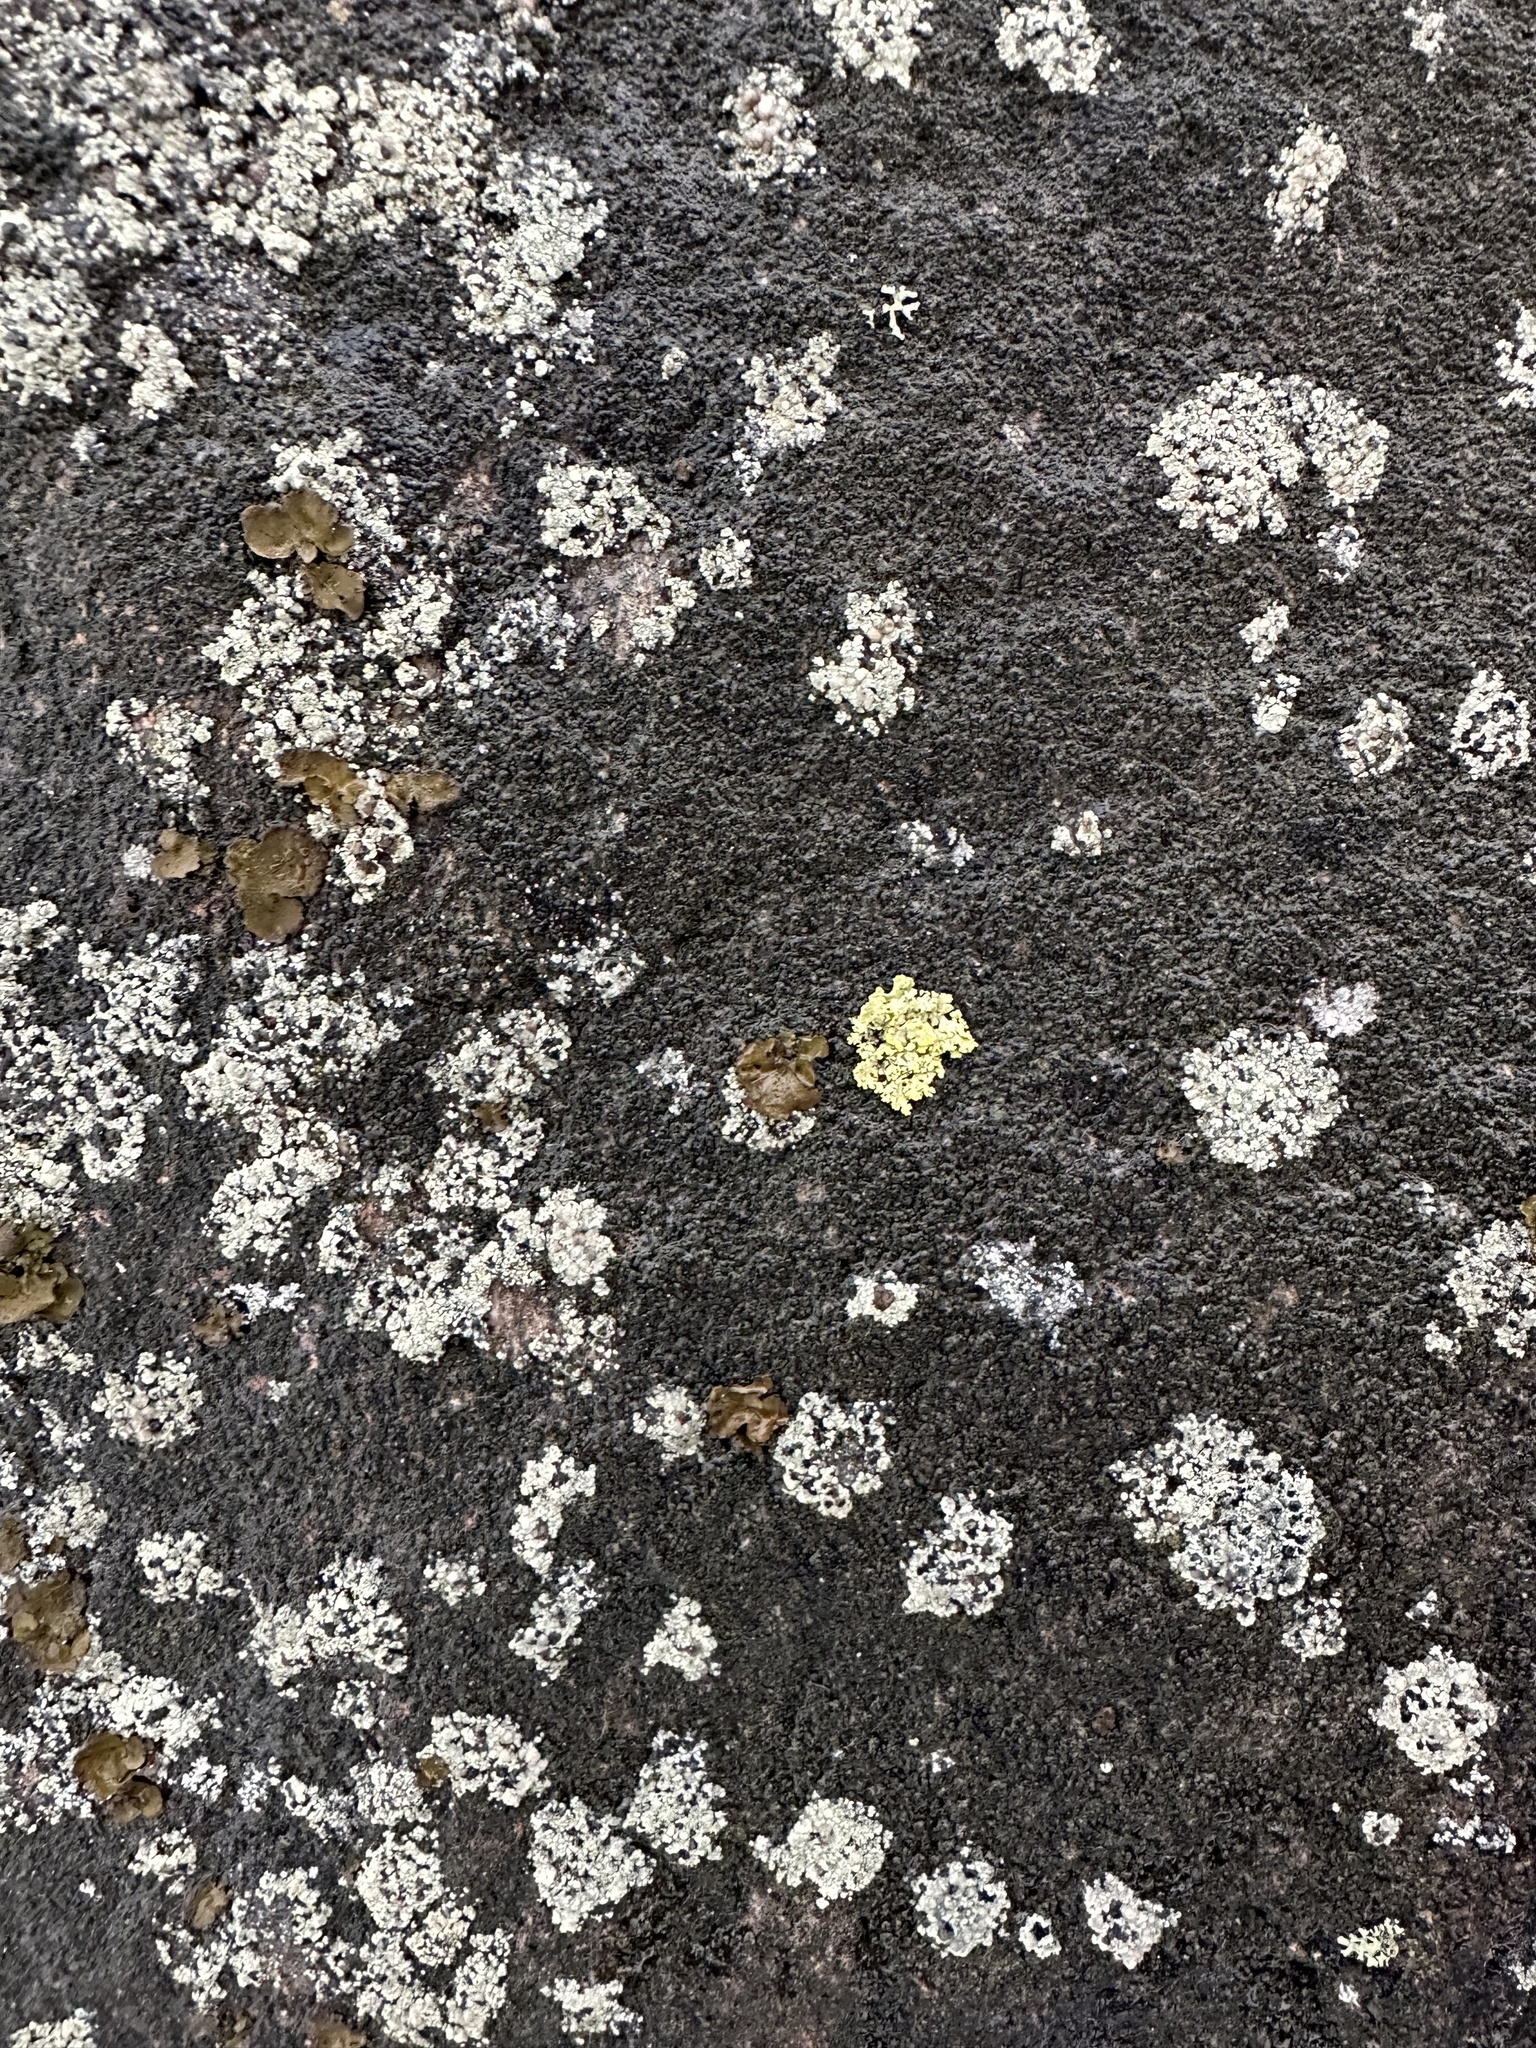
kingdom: Fungi
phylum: Ascomycota
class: Lecanoromycetes
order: Lecanorales
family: Parmeliaceae
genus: Vulpicida
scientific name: Vulpicida pinastri
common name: Powdered sunshine lichen
